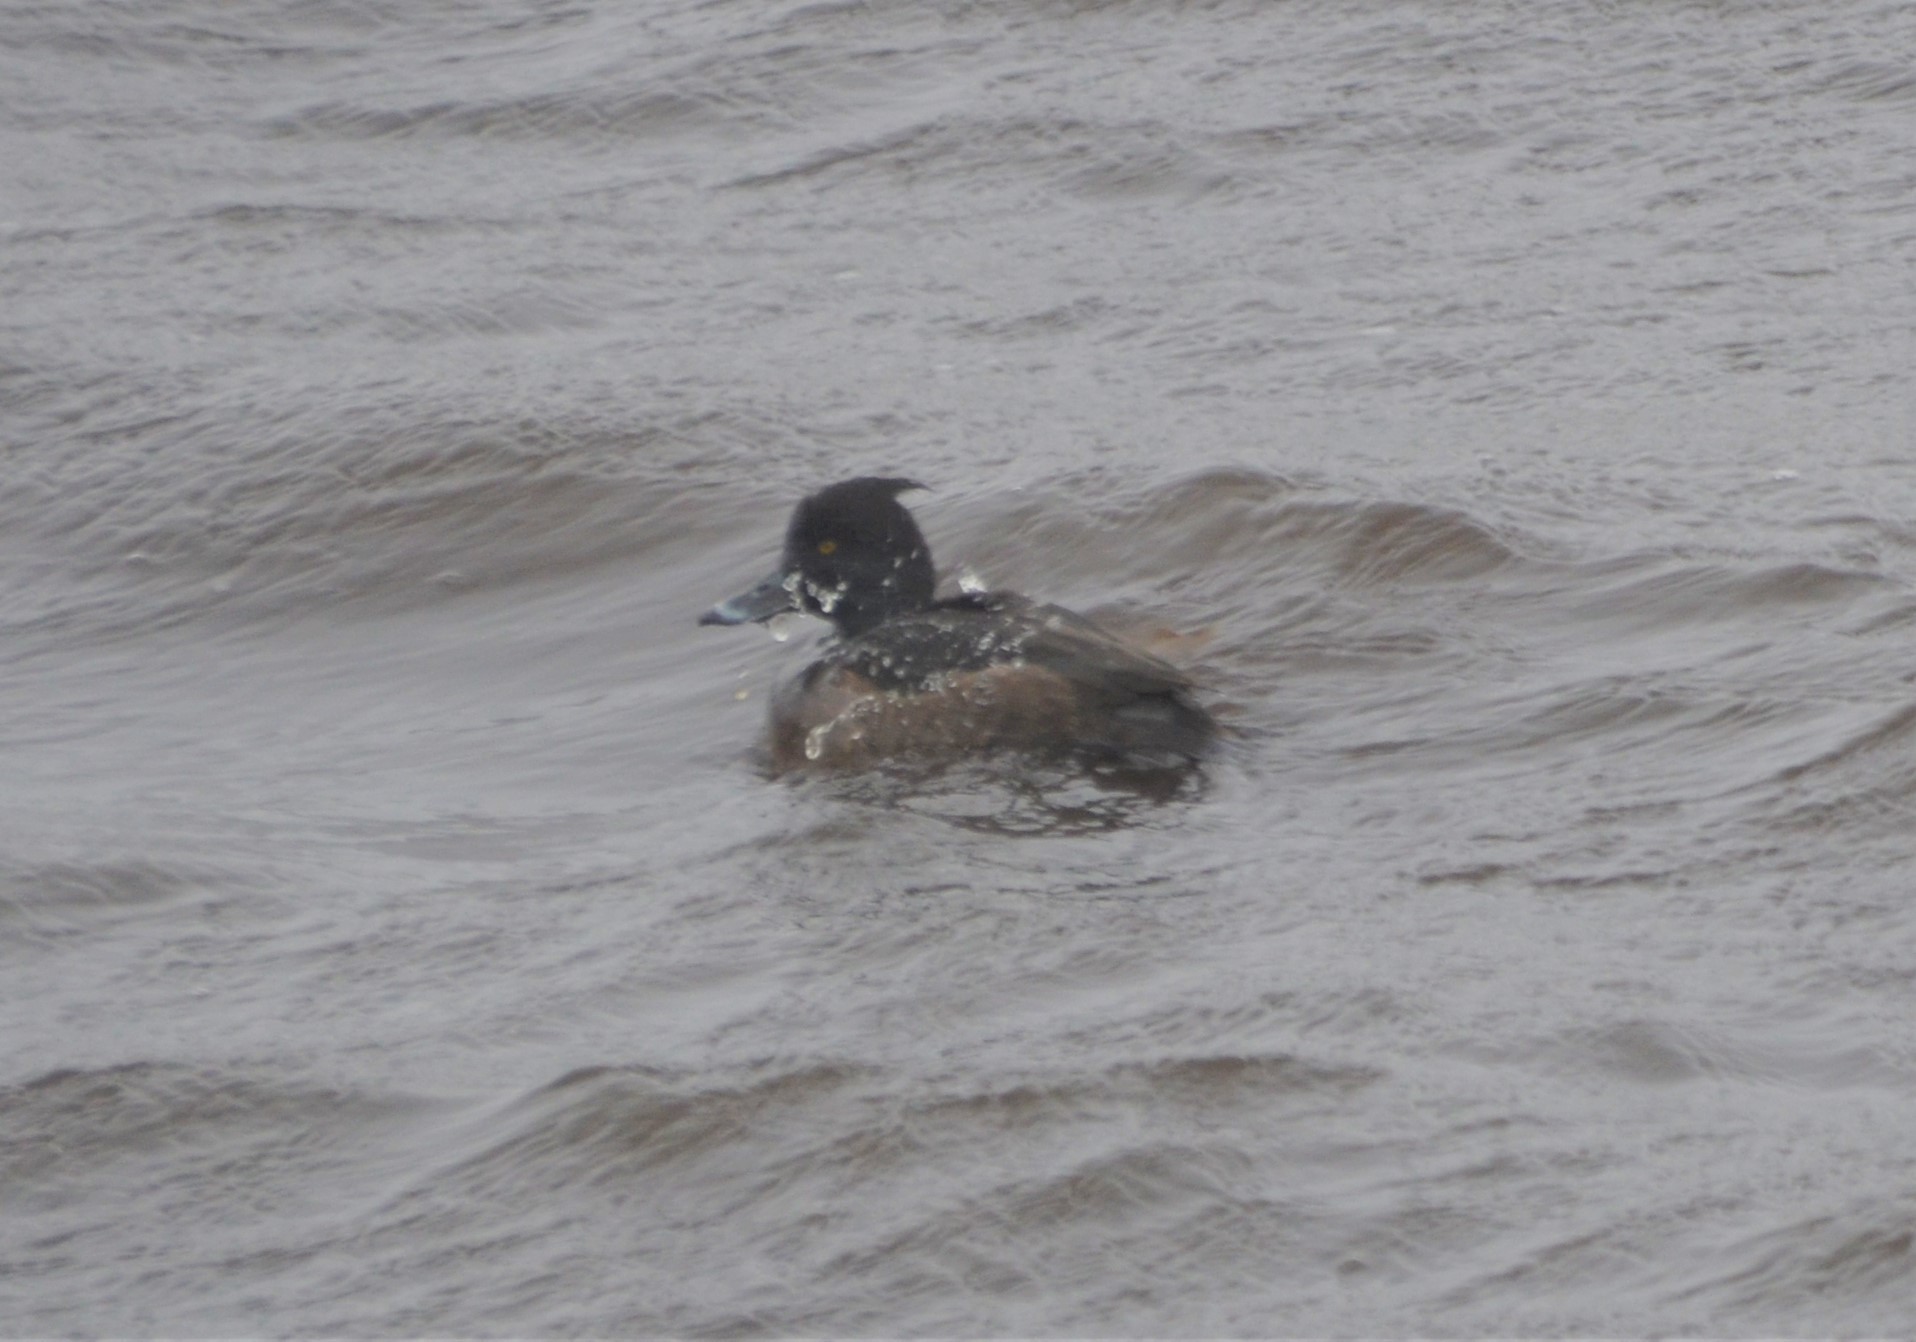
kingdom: Animalia
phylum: Chordata
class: Aves
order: Anseriformes
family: Anatidae
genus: Aythya
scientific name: Aythya fuligula
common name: Tufted duck
